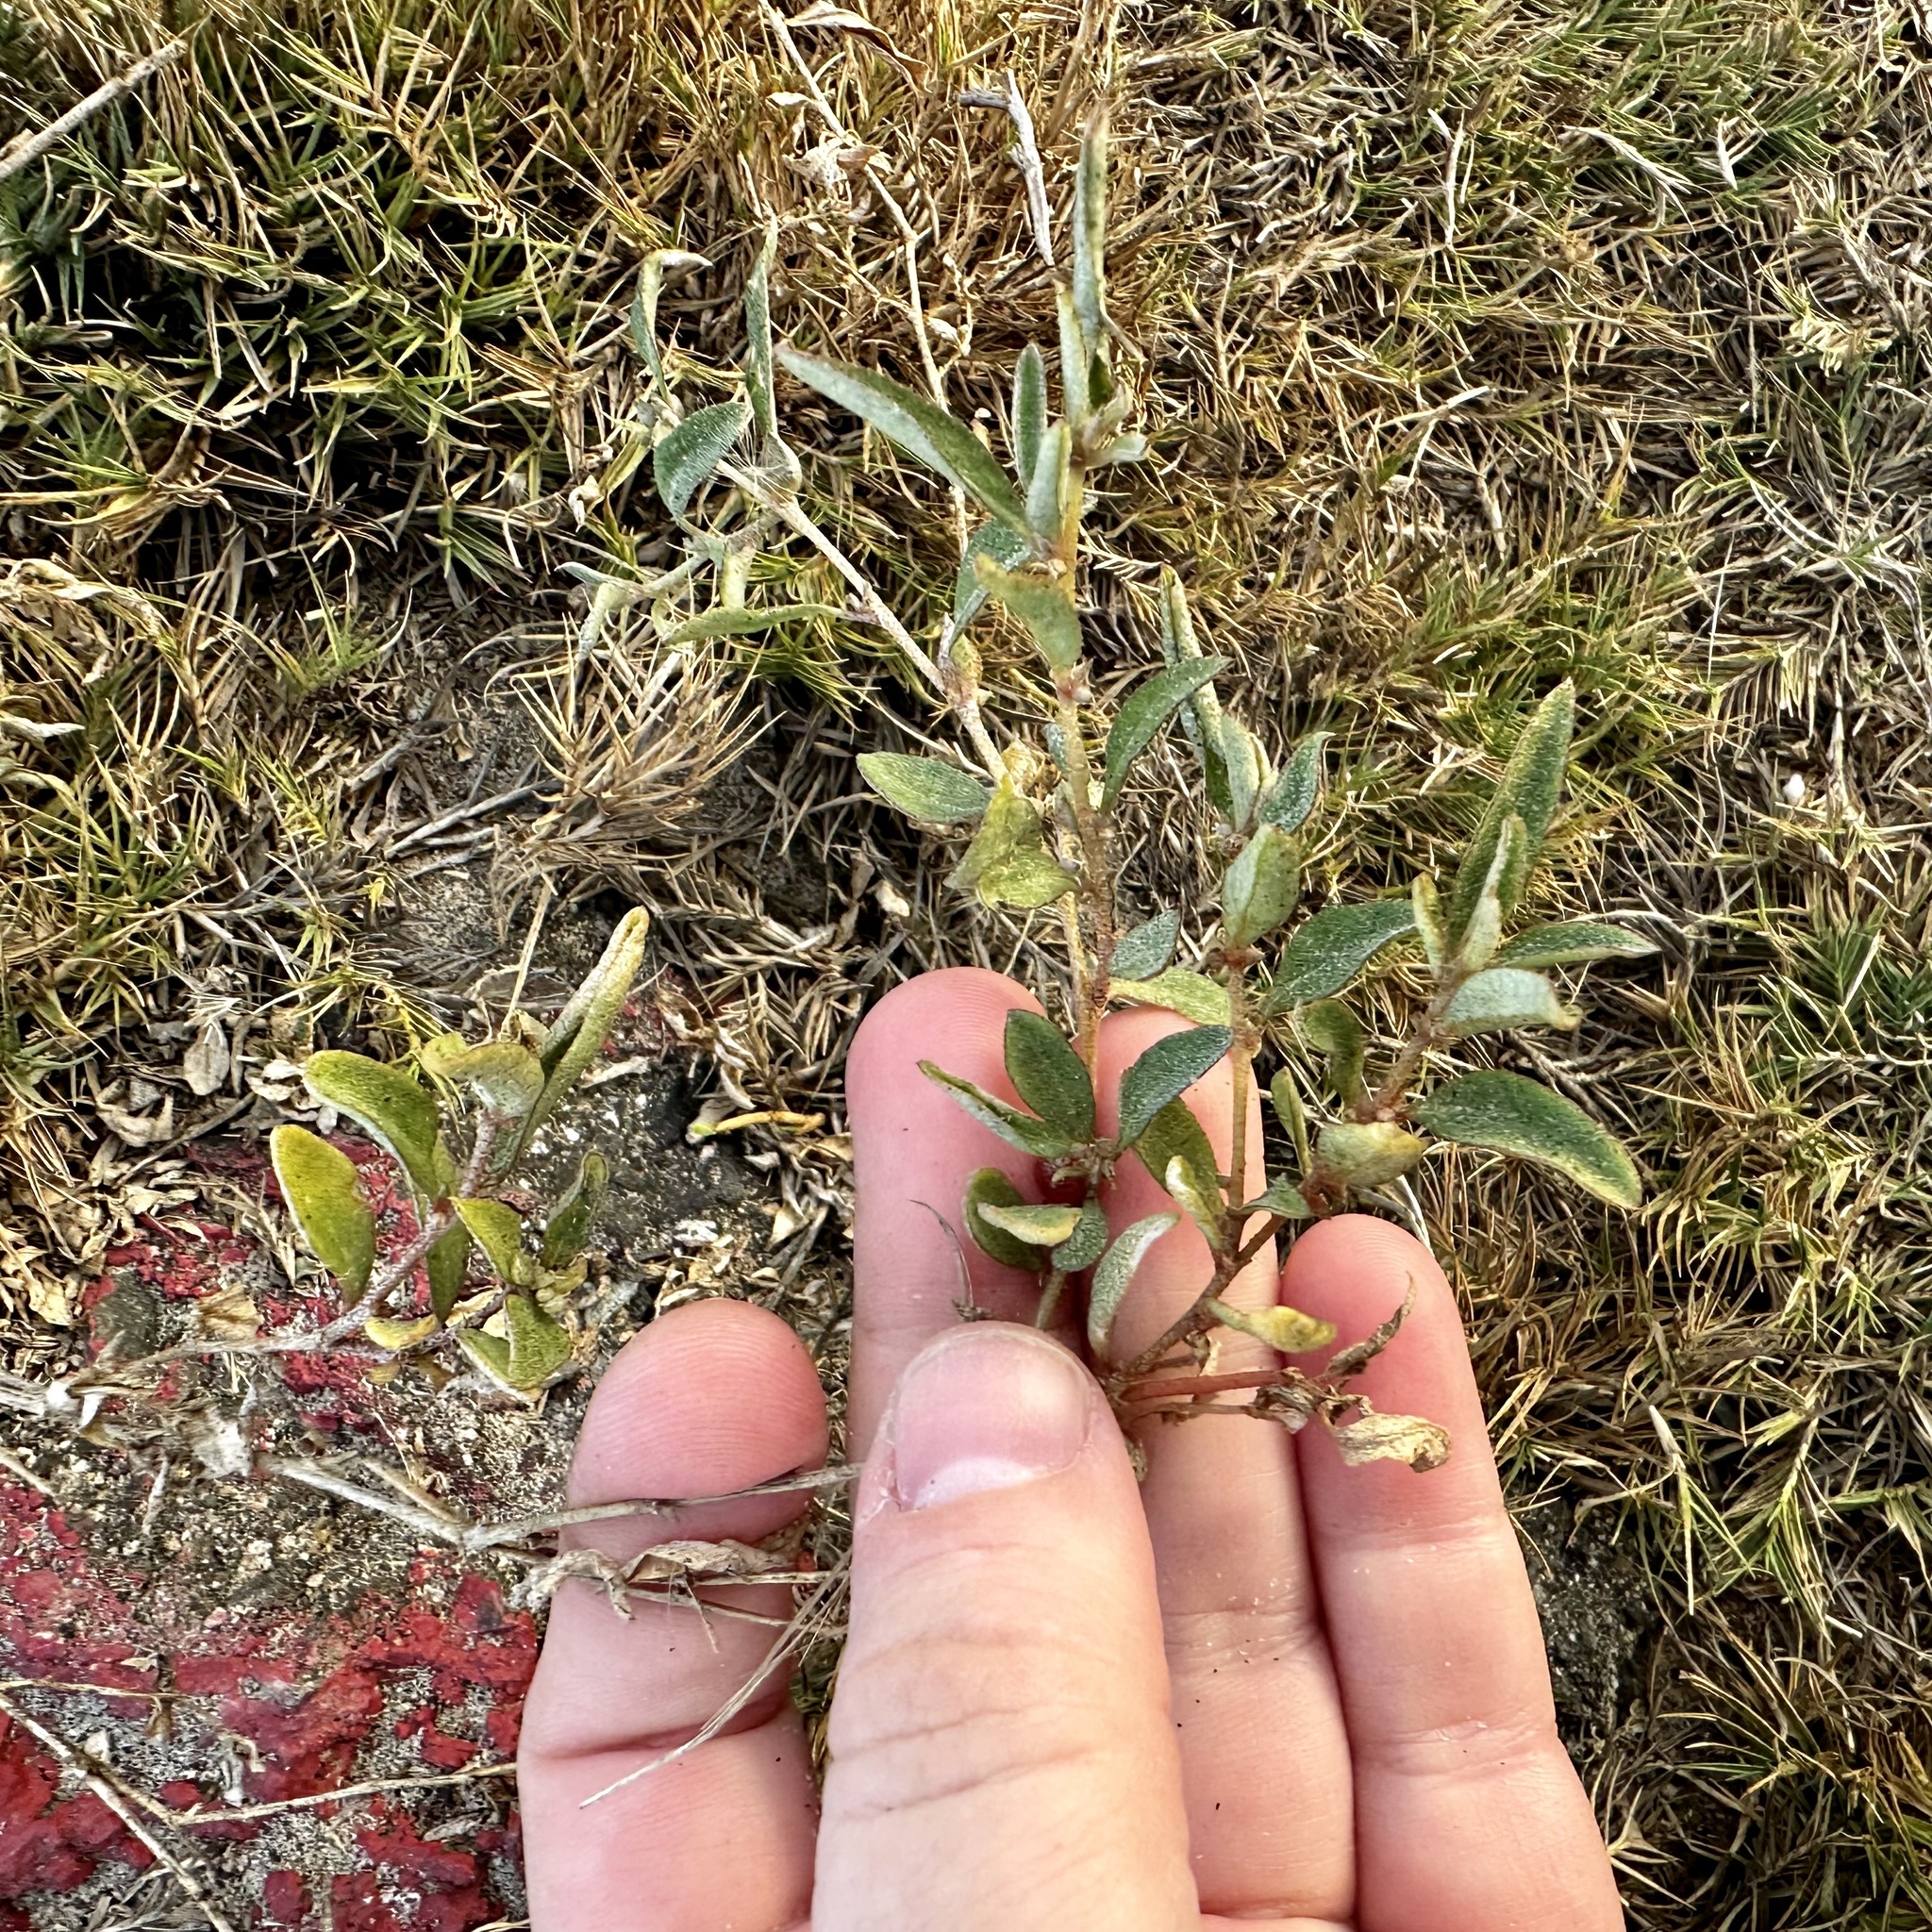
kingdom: Plantae
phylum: Tracheophyta
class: Magnoliopsida
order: Caryophyllales
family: Amaranthaceae
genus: Atriplex
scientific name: Atriplex semibaccata
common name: Australian saltbush
